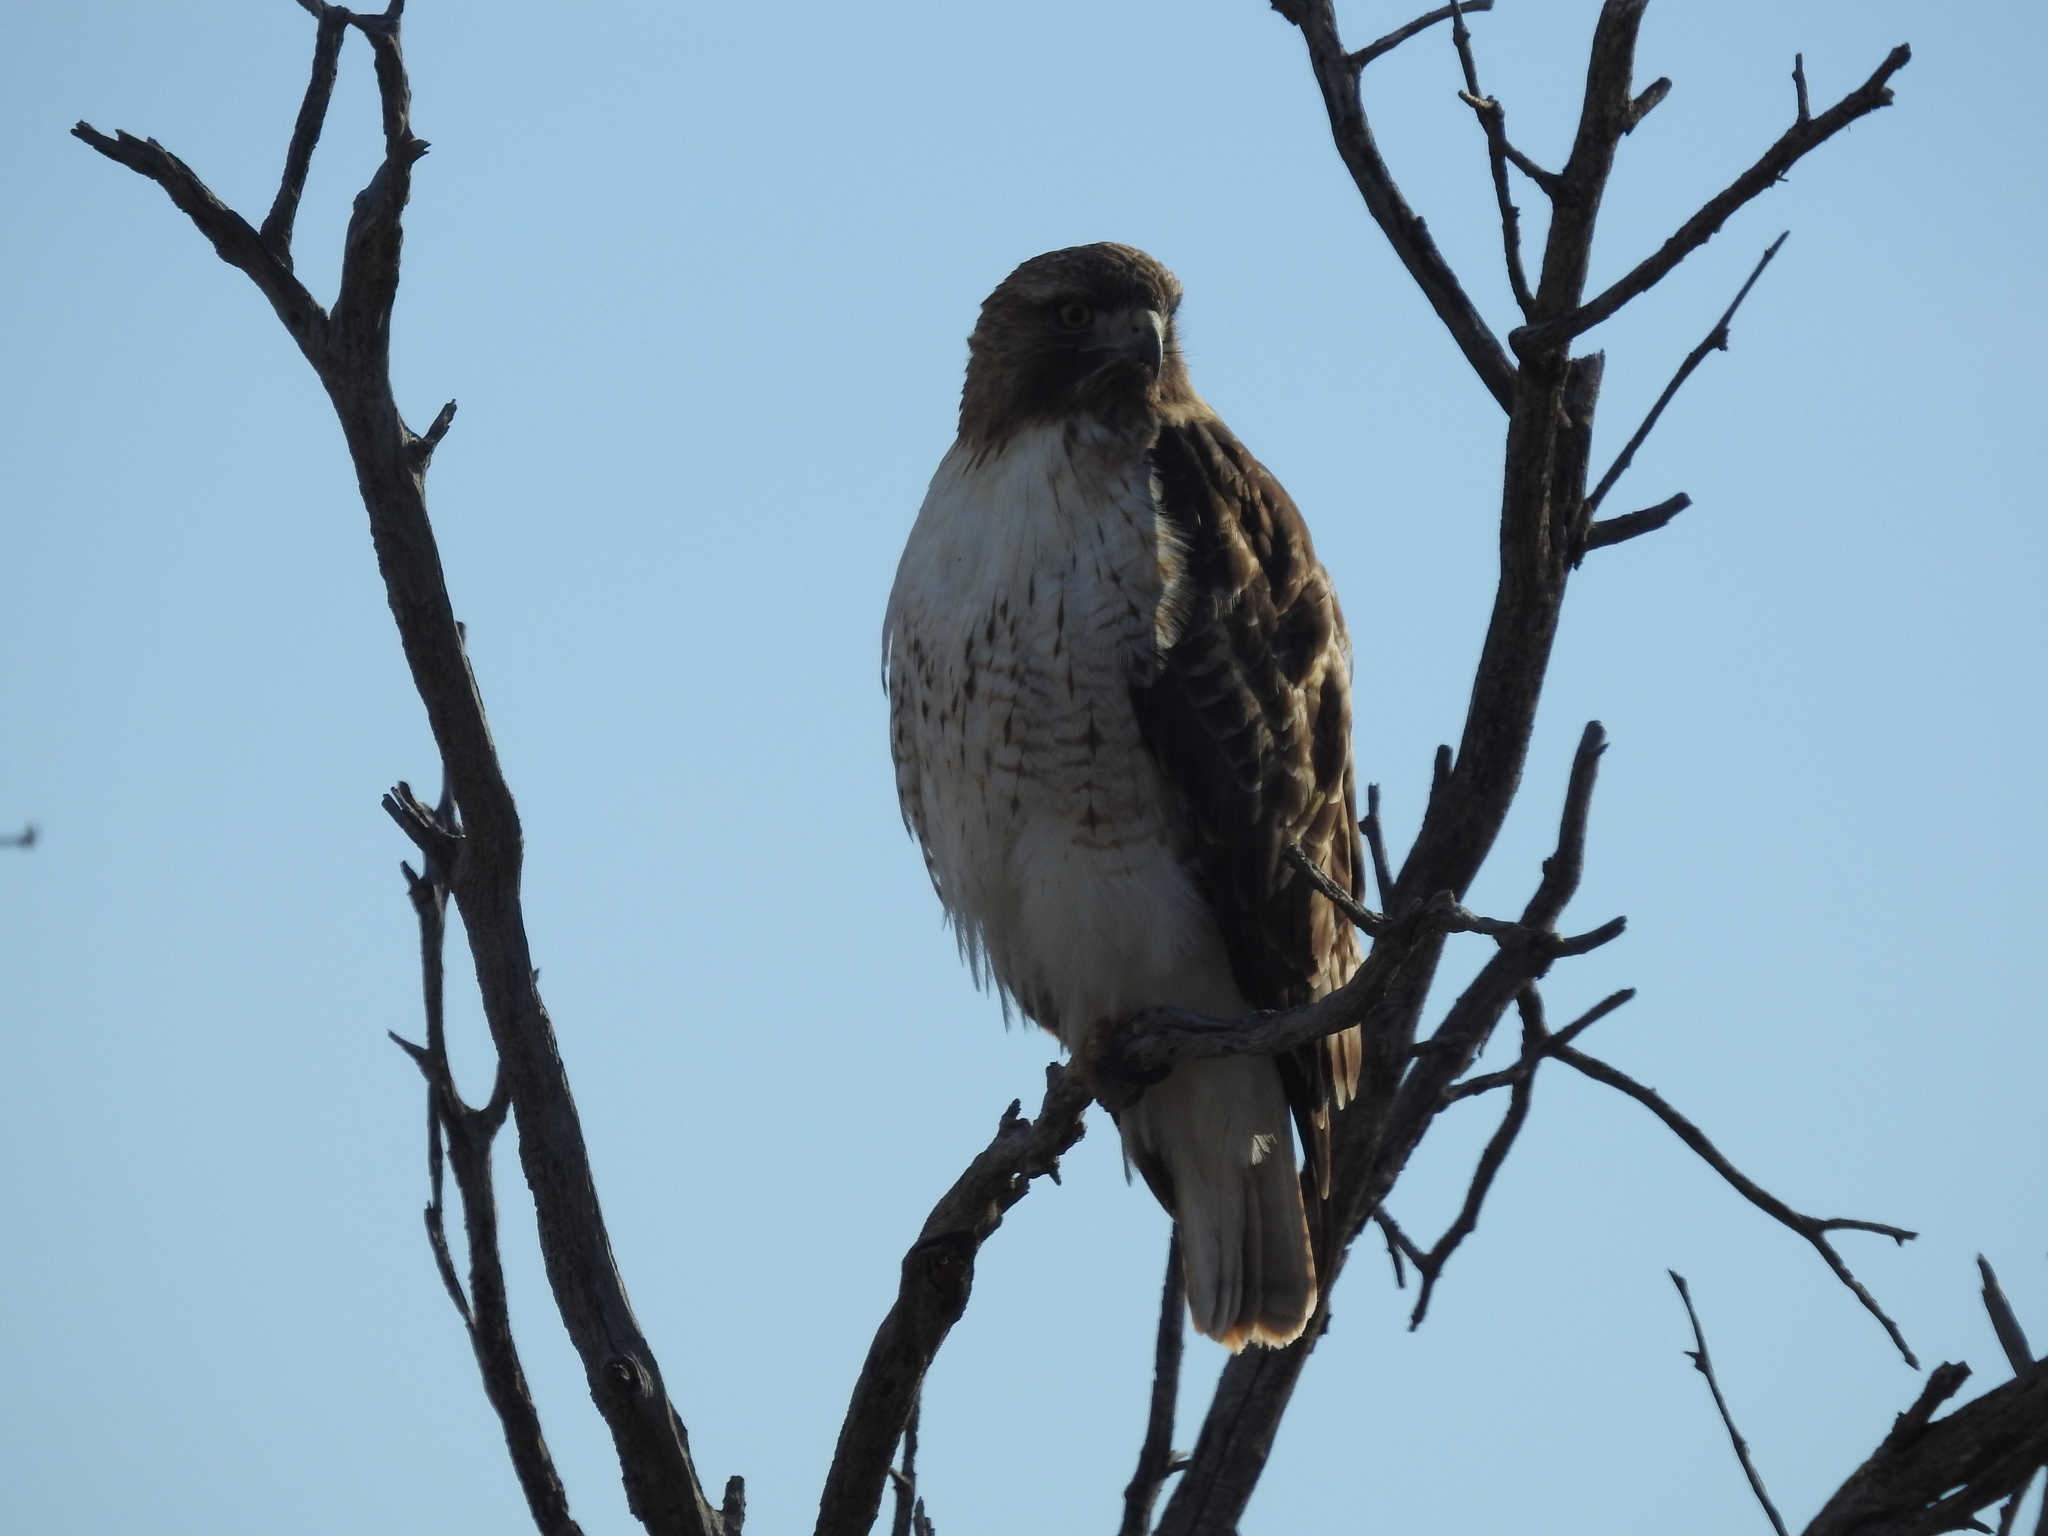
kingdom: Animalia
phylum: Chordata
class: Aves
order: Accipitriformes
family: Accipitridae
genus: Buteo
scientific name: Buteo jamaicensis
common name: Red-tailed hawk
